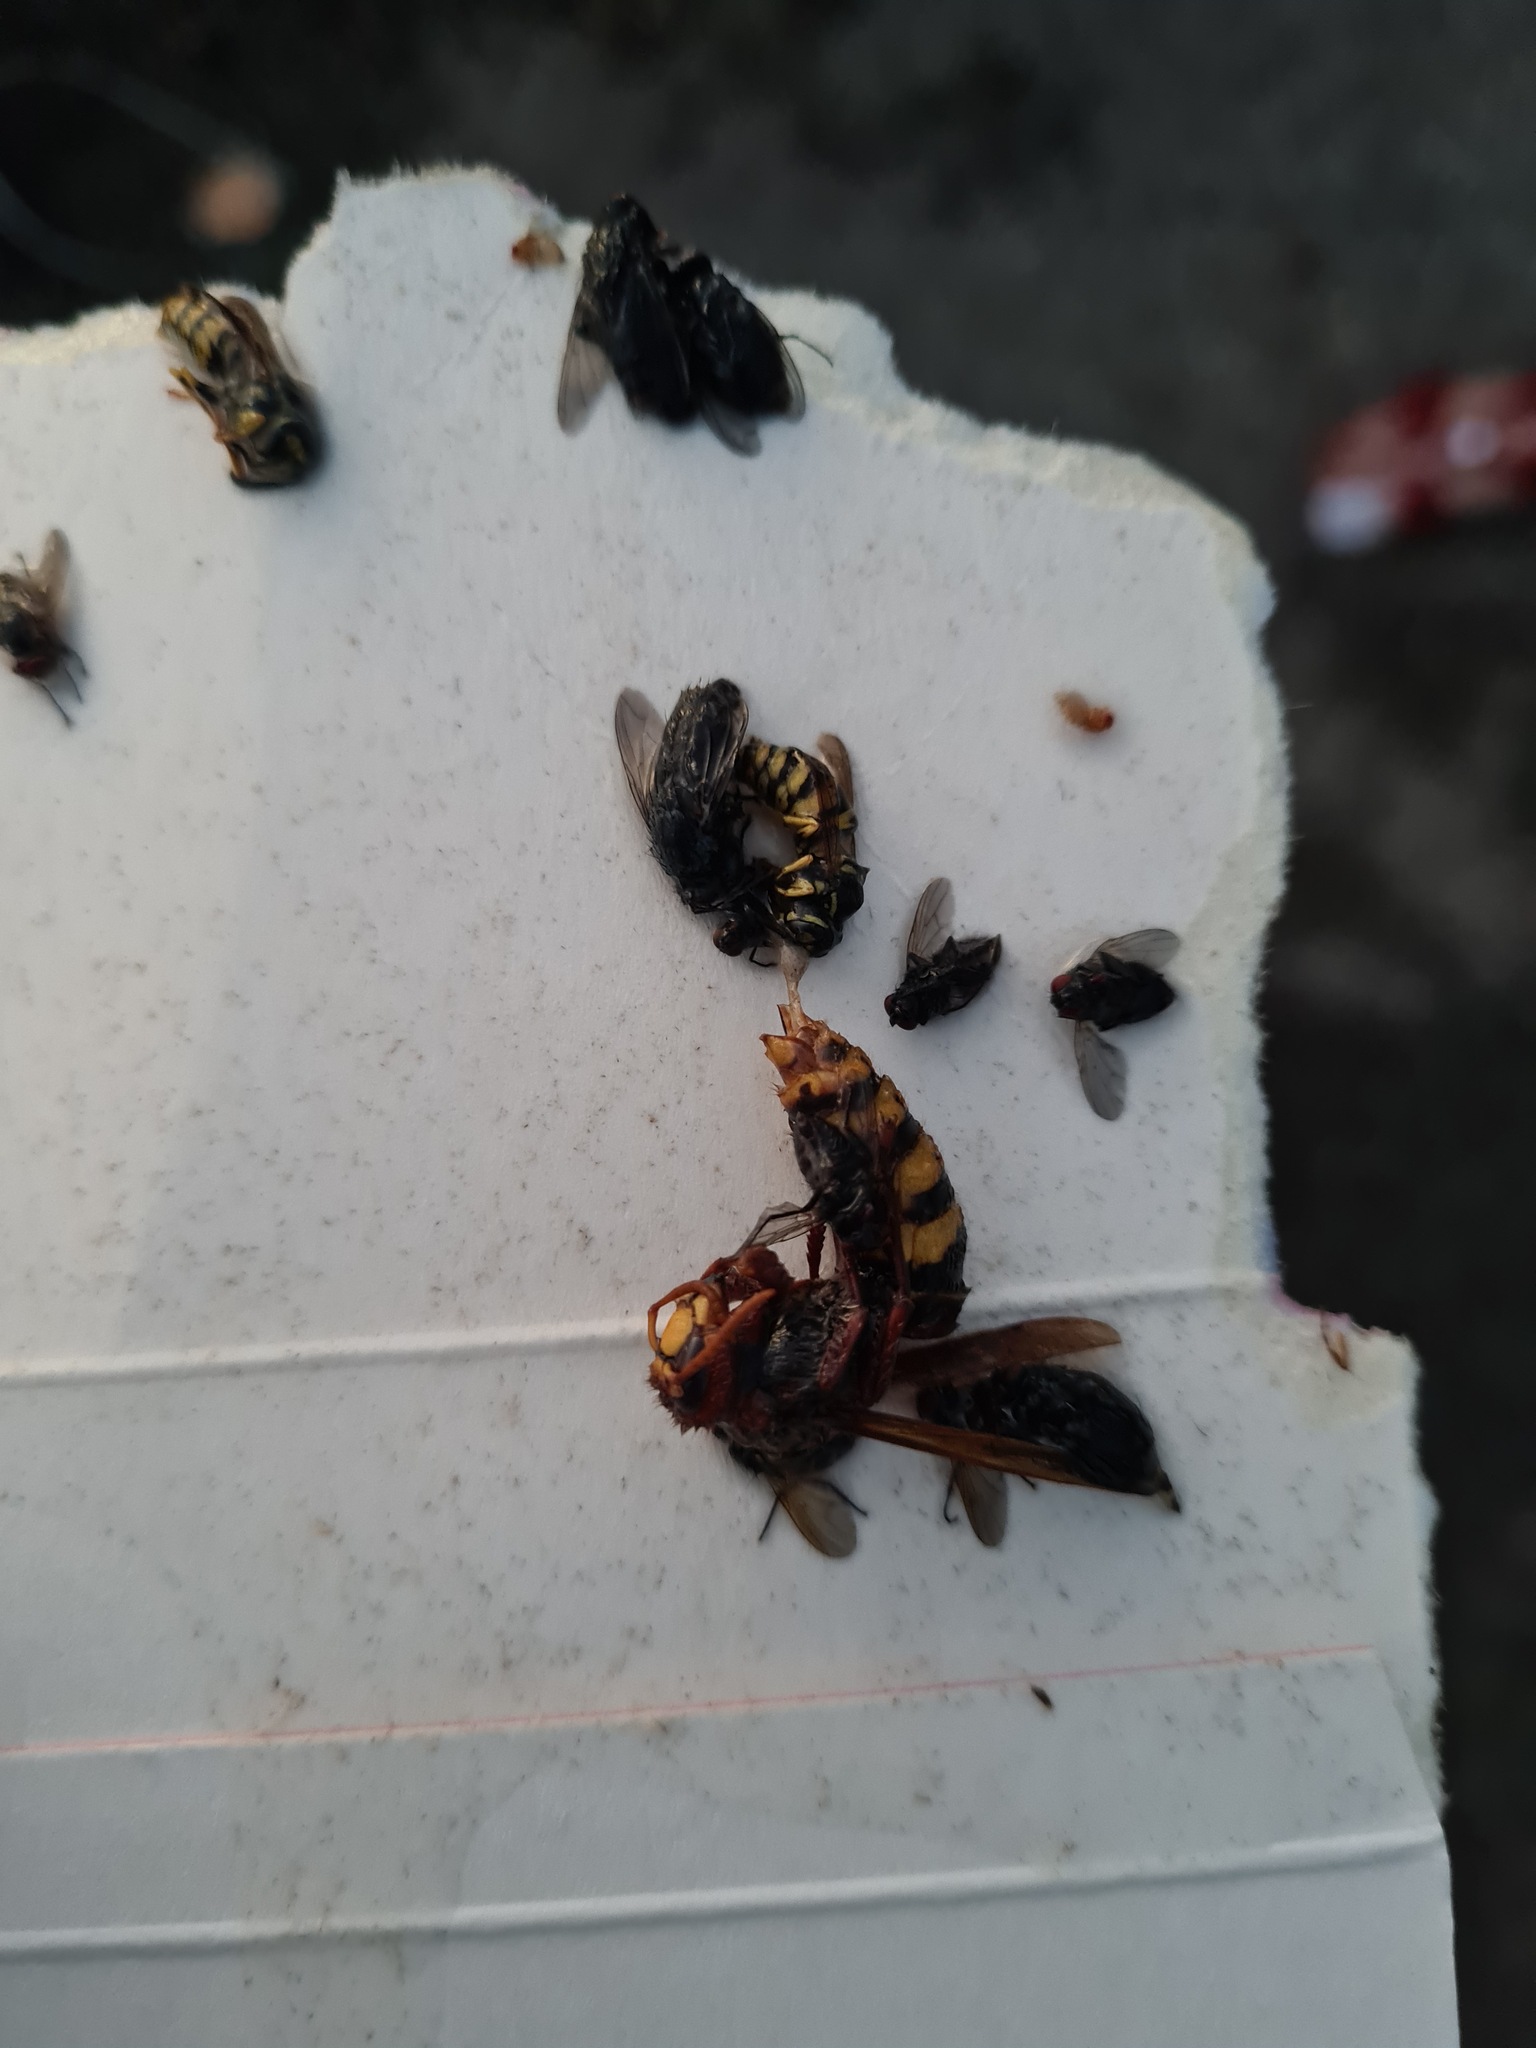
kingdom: Animalia
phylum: Arthropoda
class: Insecta
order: Hymenoptera
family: Vespidae
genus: Vespa
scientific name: Vespa crabro
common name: Hornet
